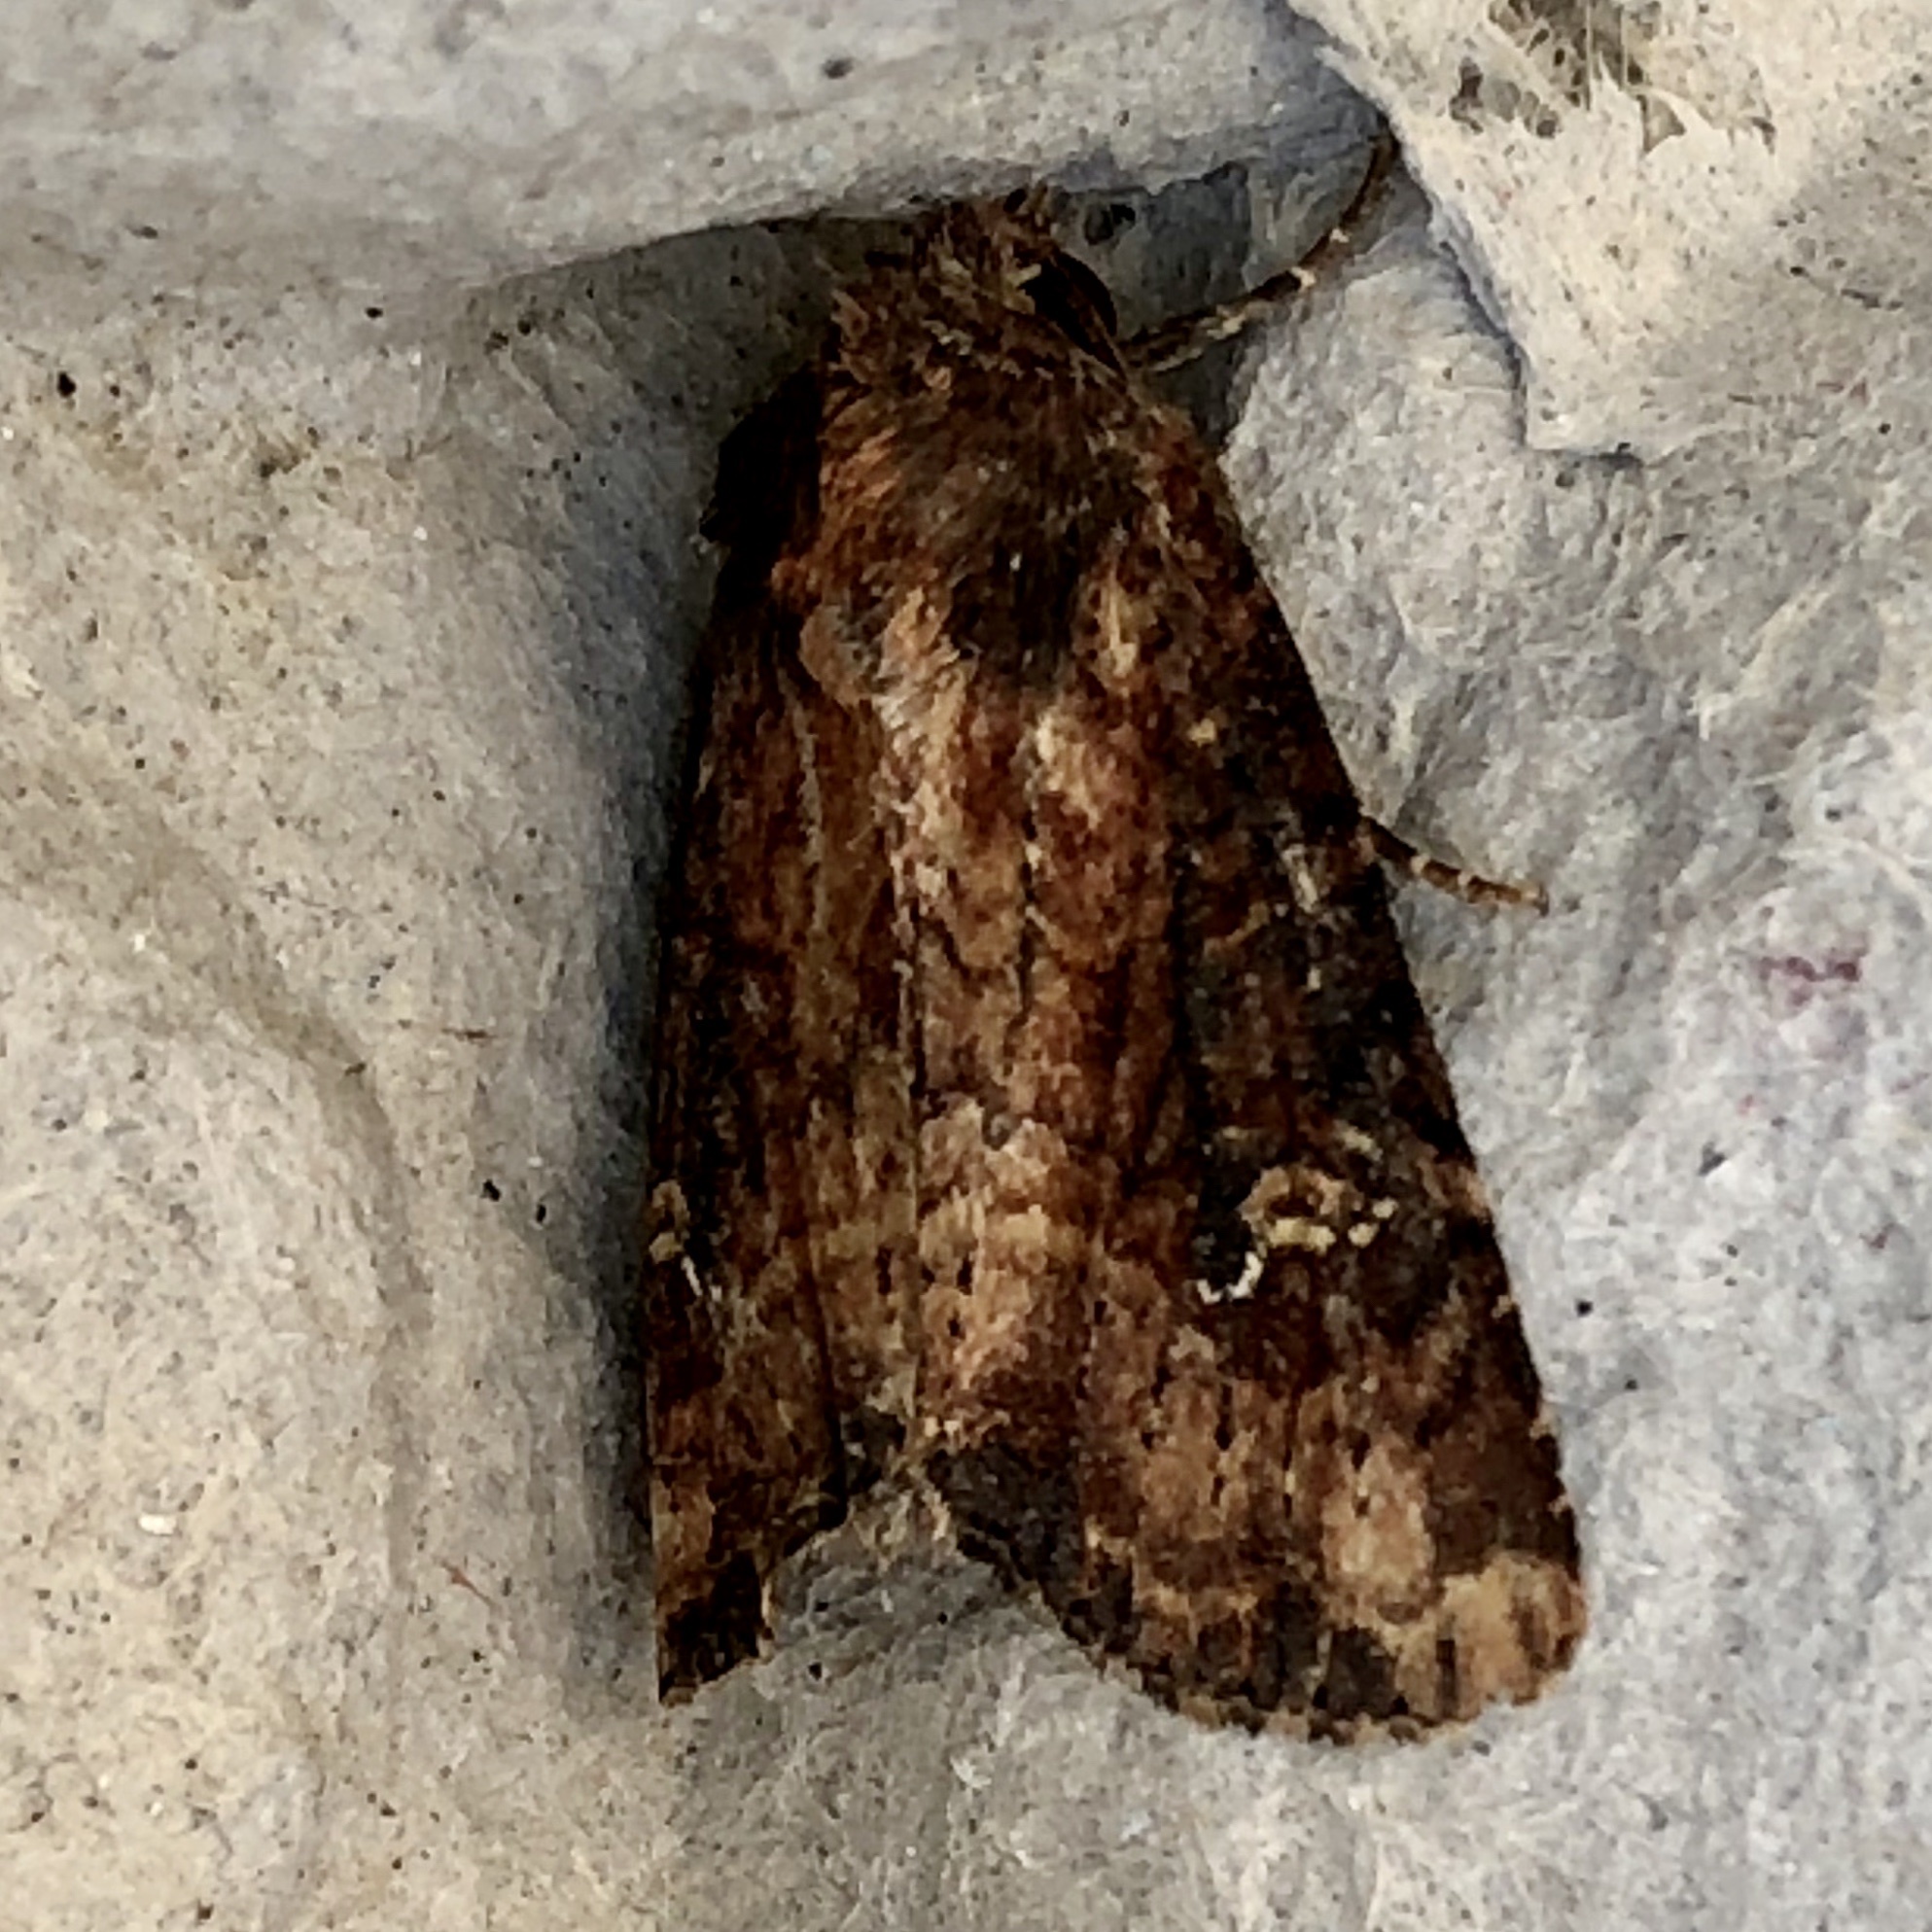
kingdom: Animalia
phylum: Arthropoda
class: Insecta
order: Lepidoptera
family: Noctuidae
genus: Mesapamea
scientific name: Mesapamea
